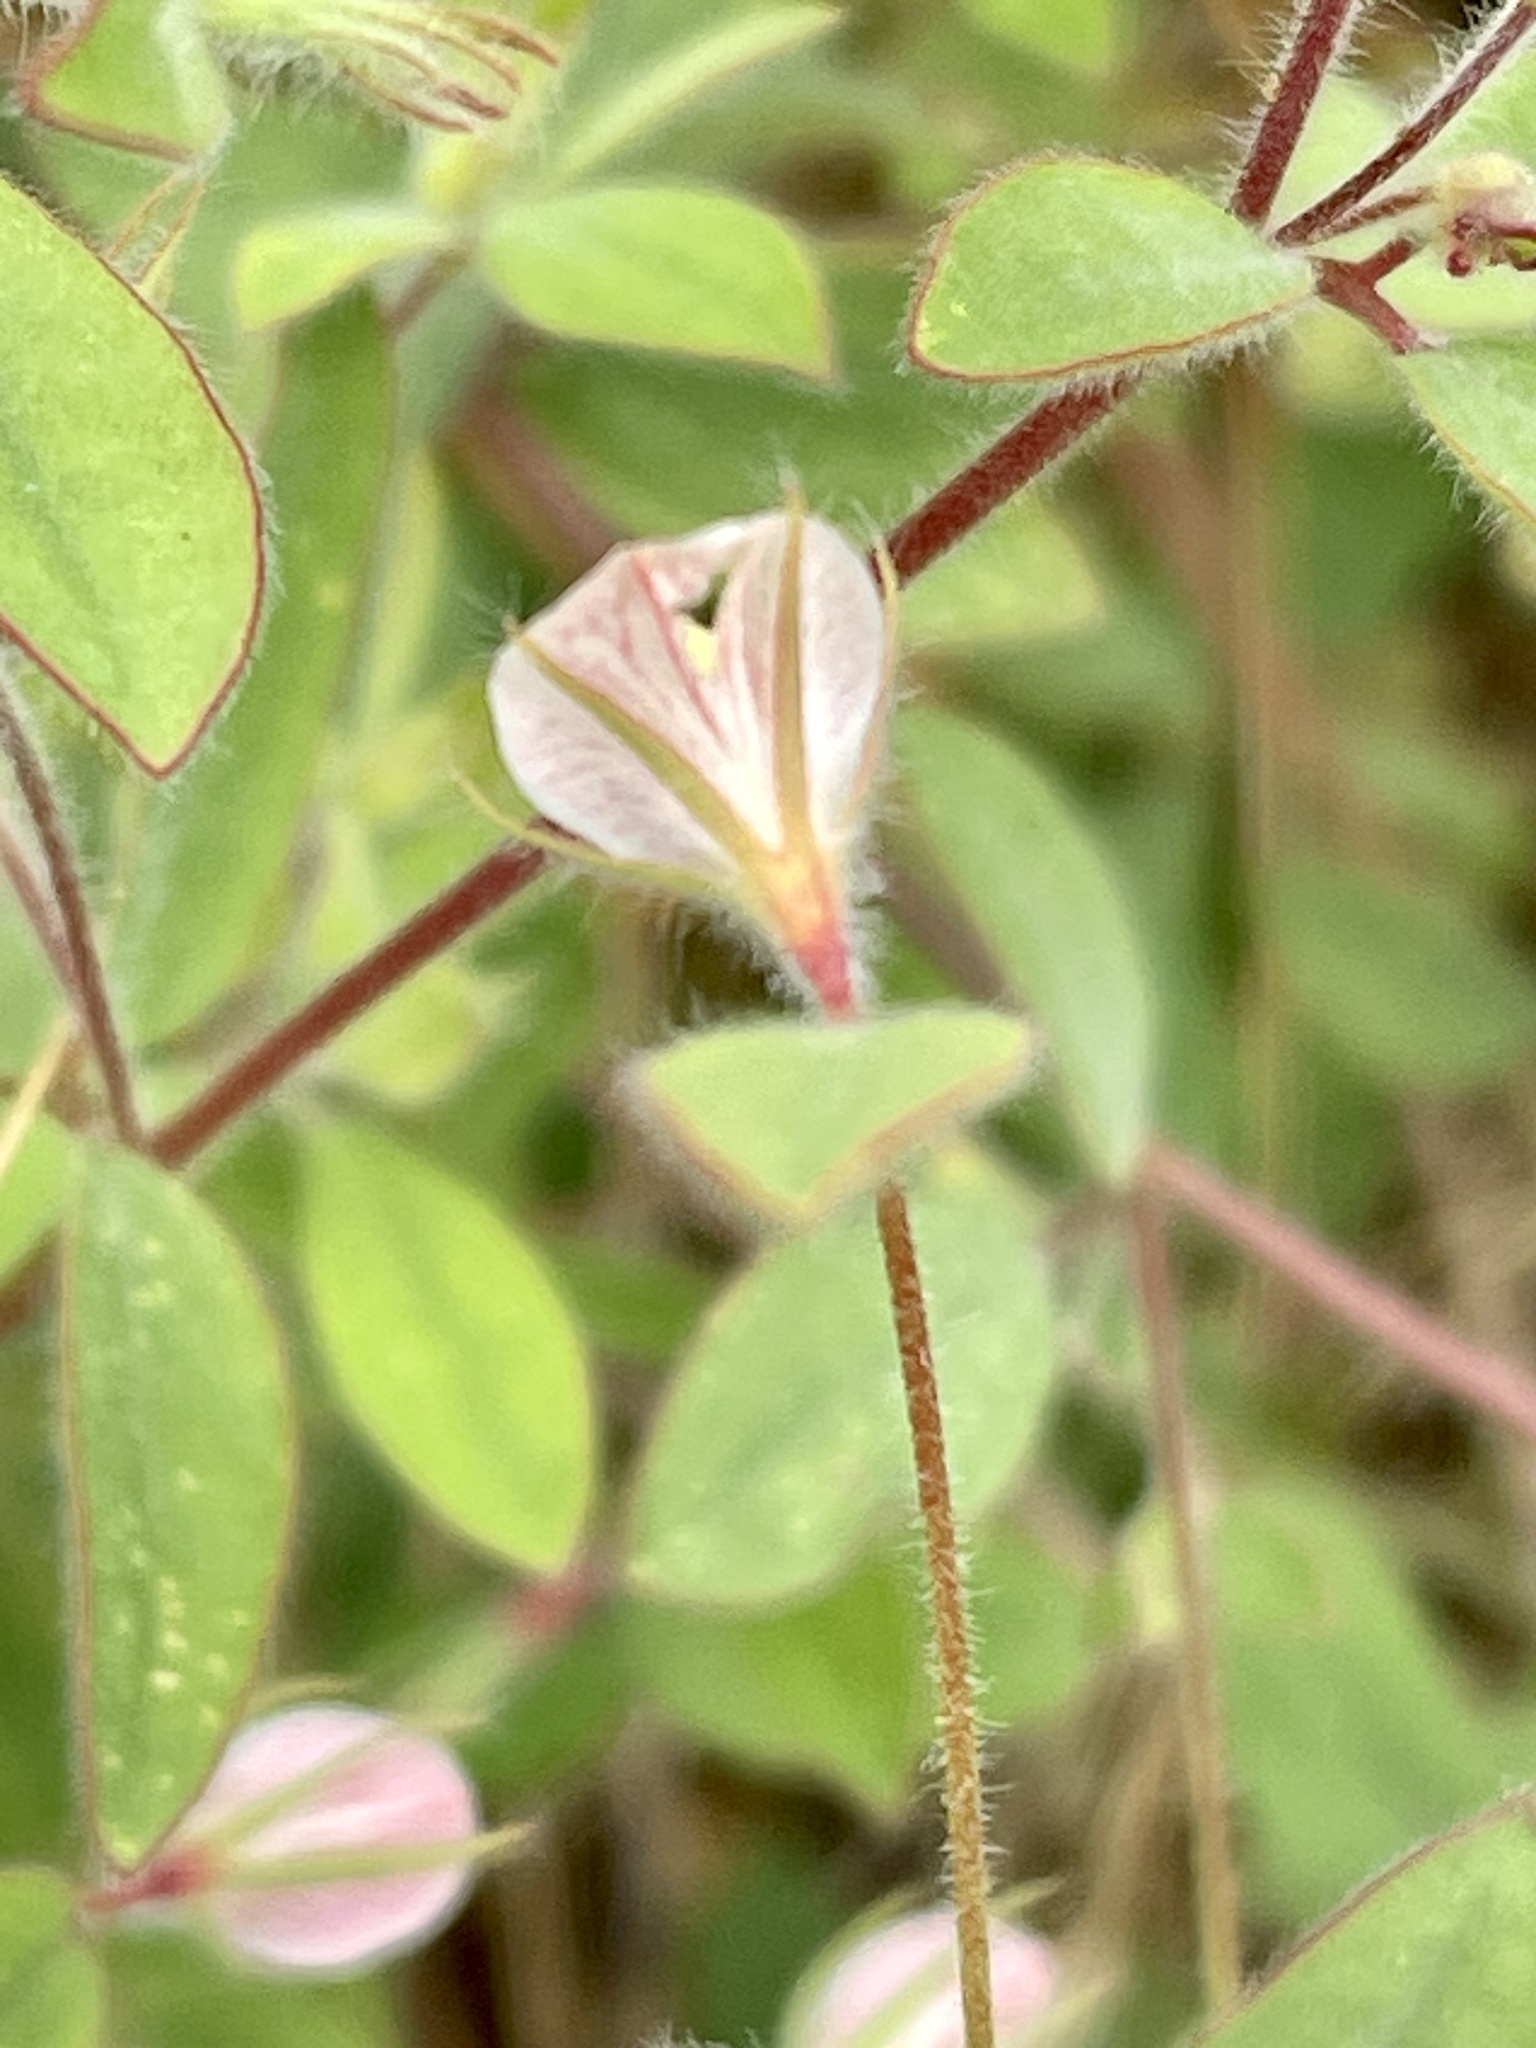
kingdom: Plantae
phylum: Tracheophyta
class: Magnoliopsida
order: Fabales
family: Fabaceae
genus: Acmispon
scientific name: Acmispon americanus
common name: American bird's-foot trefoil
